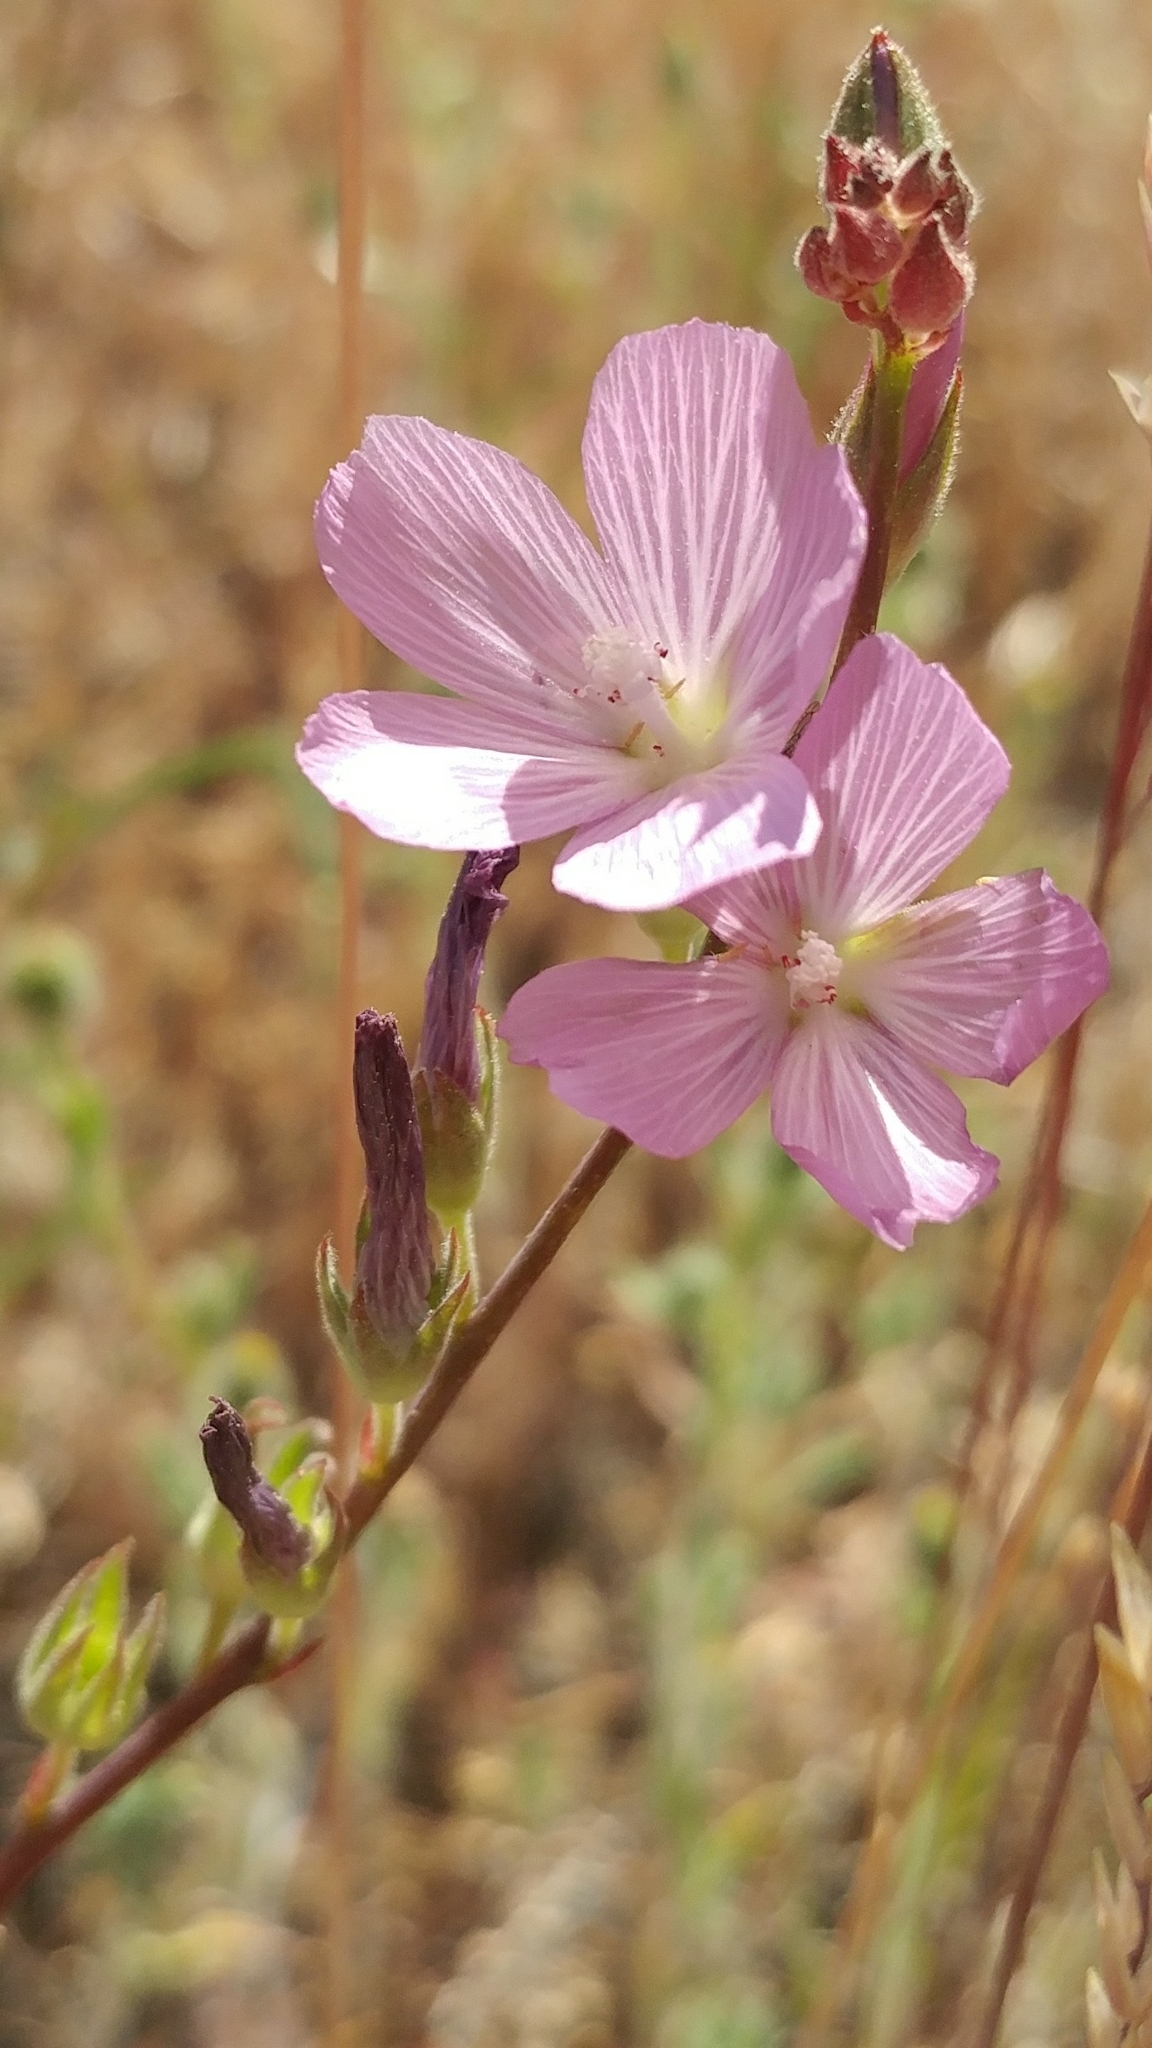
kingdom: Plantae
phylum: Tracheophyta
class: Magnoliopsida
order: Malvales
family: Malvaceae
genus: Sidalcea
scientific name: Sidalcea sparsifolia
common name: Southern checkerbloom
